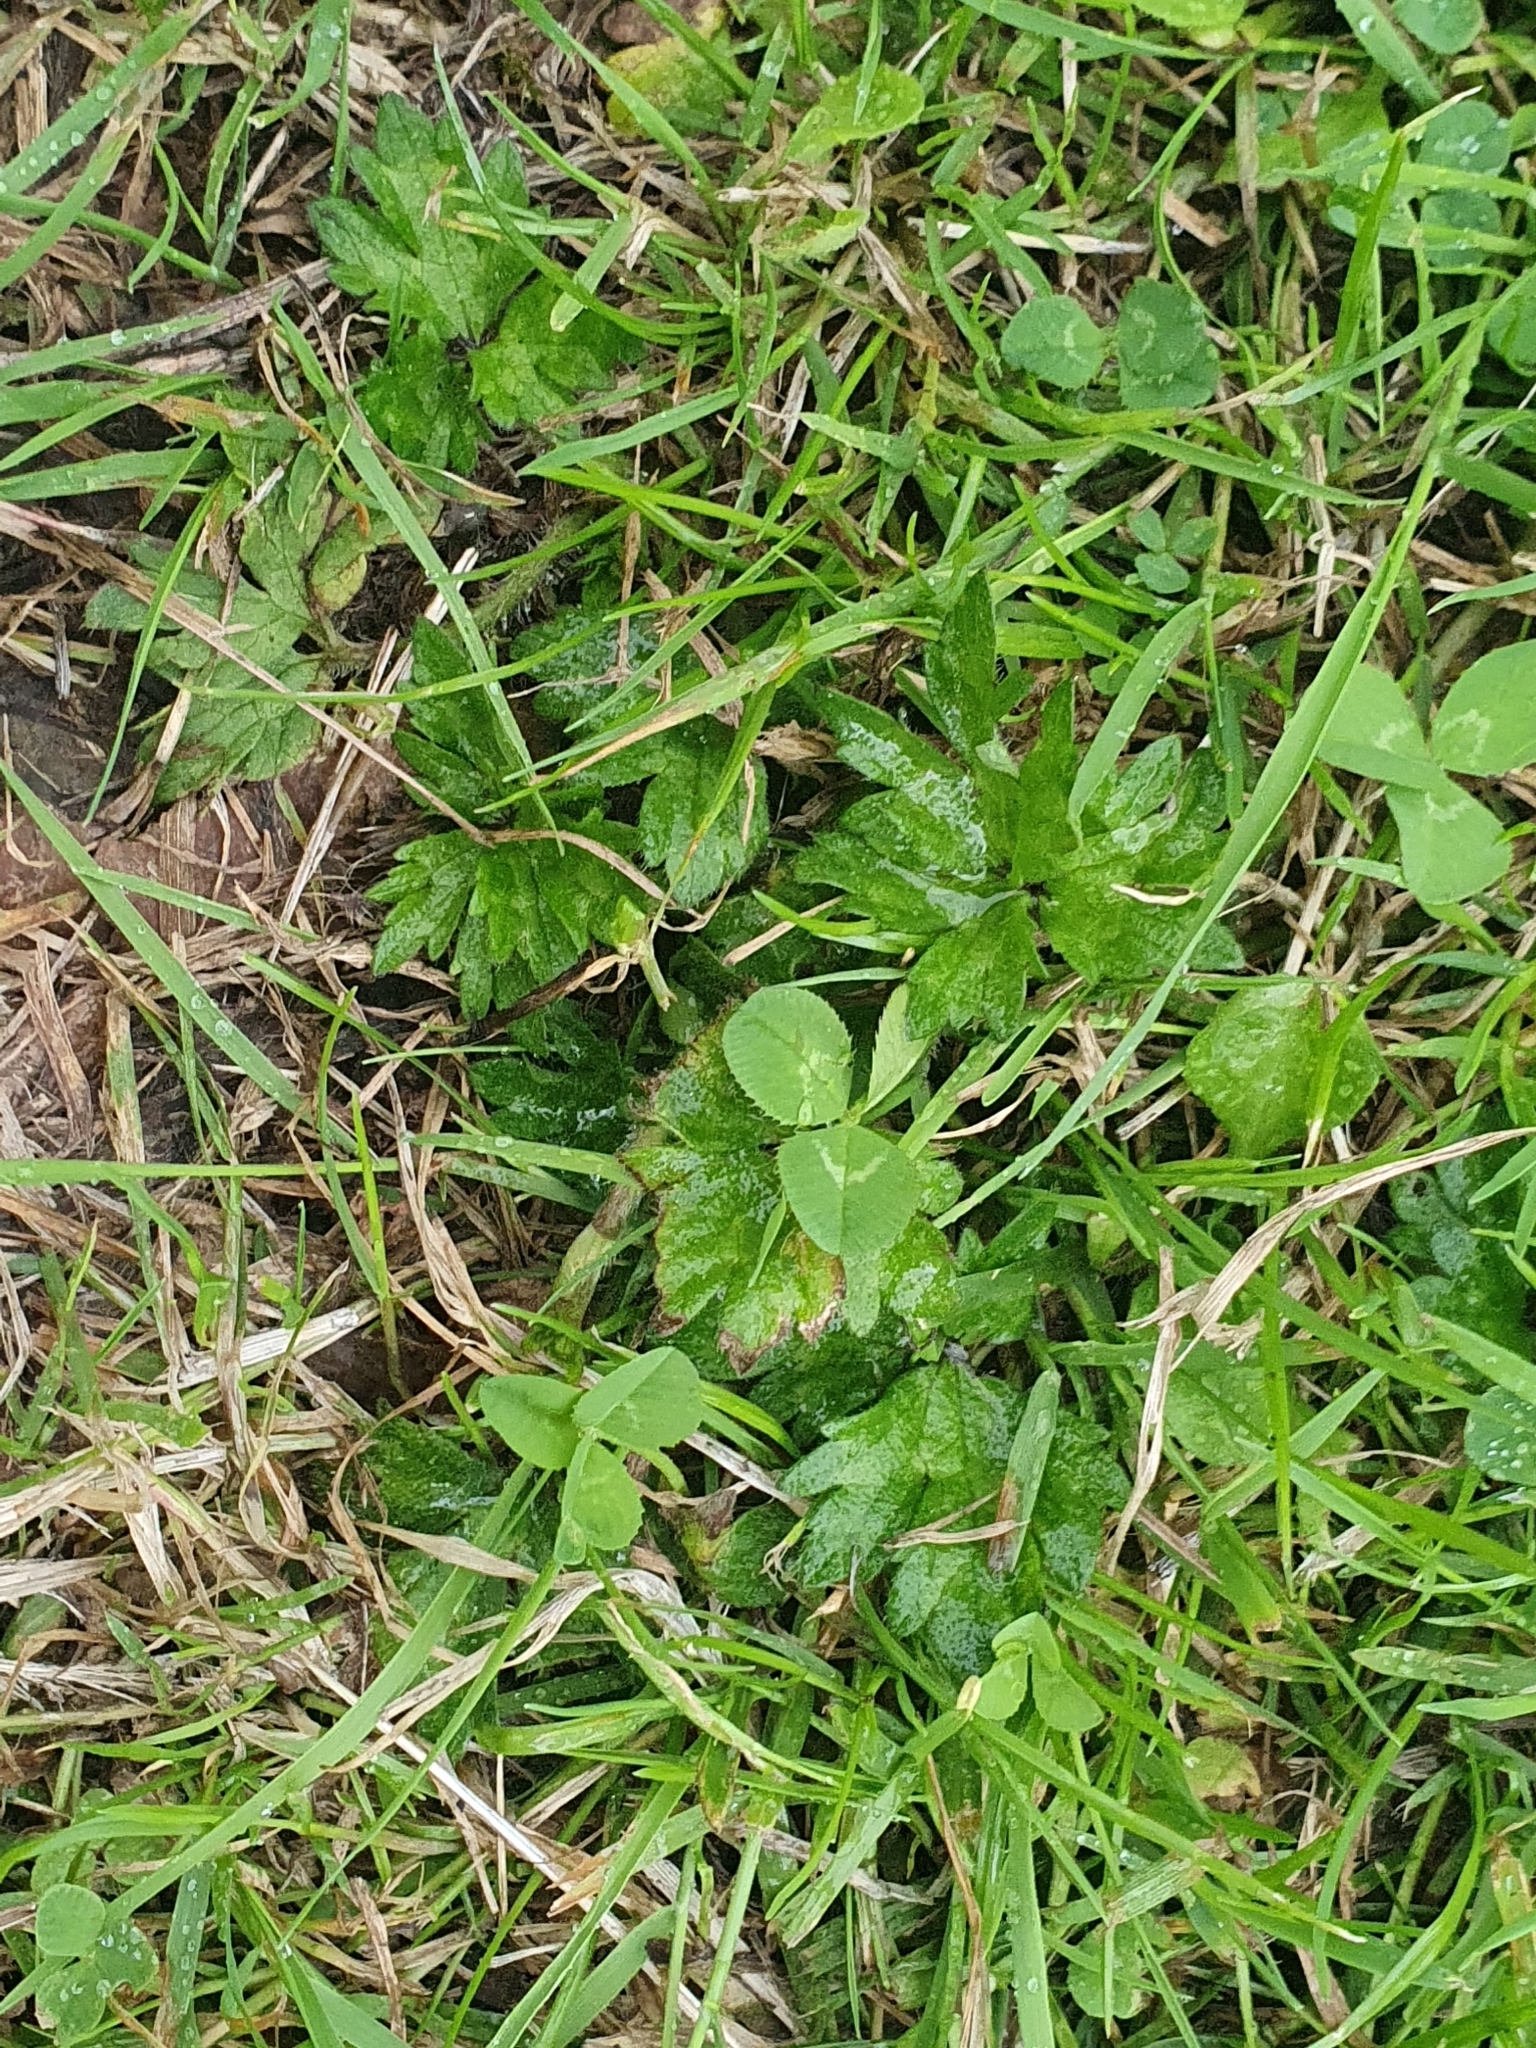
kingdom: Plantae
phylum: Tracheophyta
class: Magnoliopsida
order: Fabales
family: Fabaceae
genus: Trifolium
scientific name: Trifolium repens
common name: White clover
